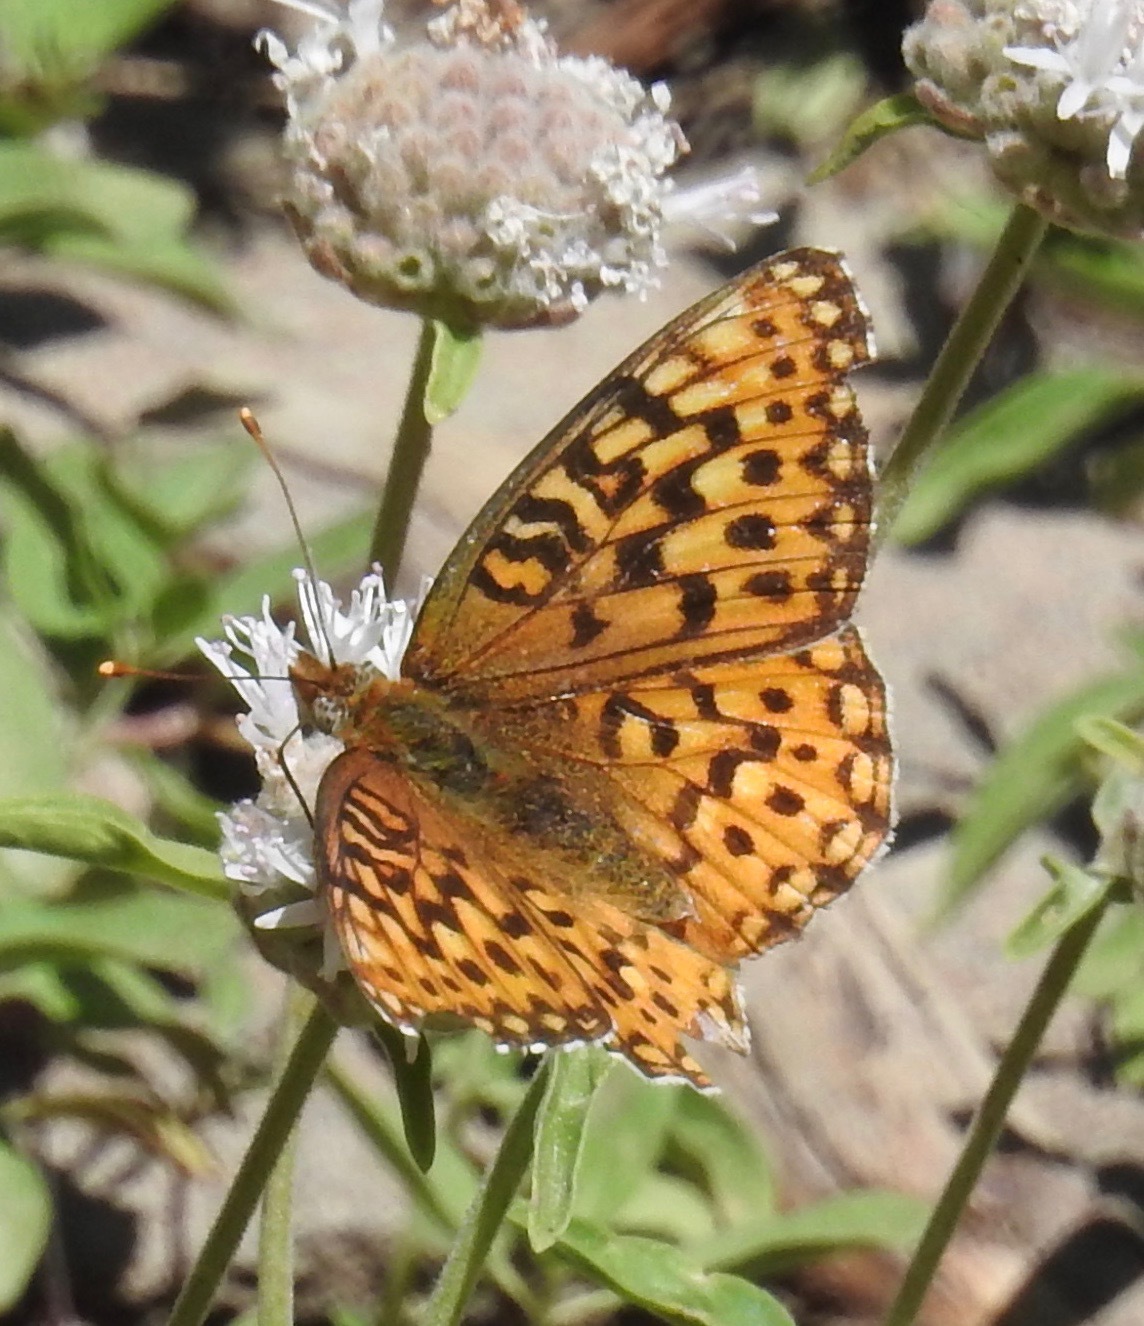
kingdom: Animalia
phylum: Arthropoda
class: Insecta
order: Lepidoptera
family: Nymphalidae
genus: Speyeria
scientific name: Speyeria mormonia
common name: Mormon fritillary
